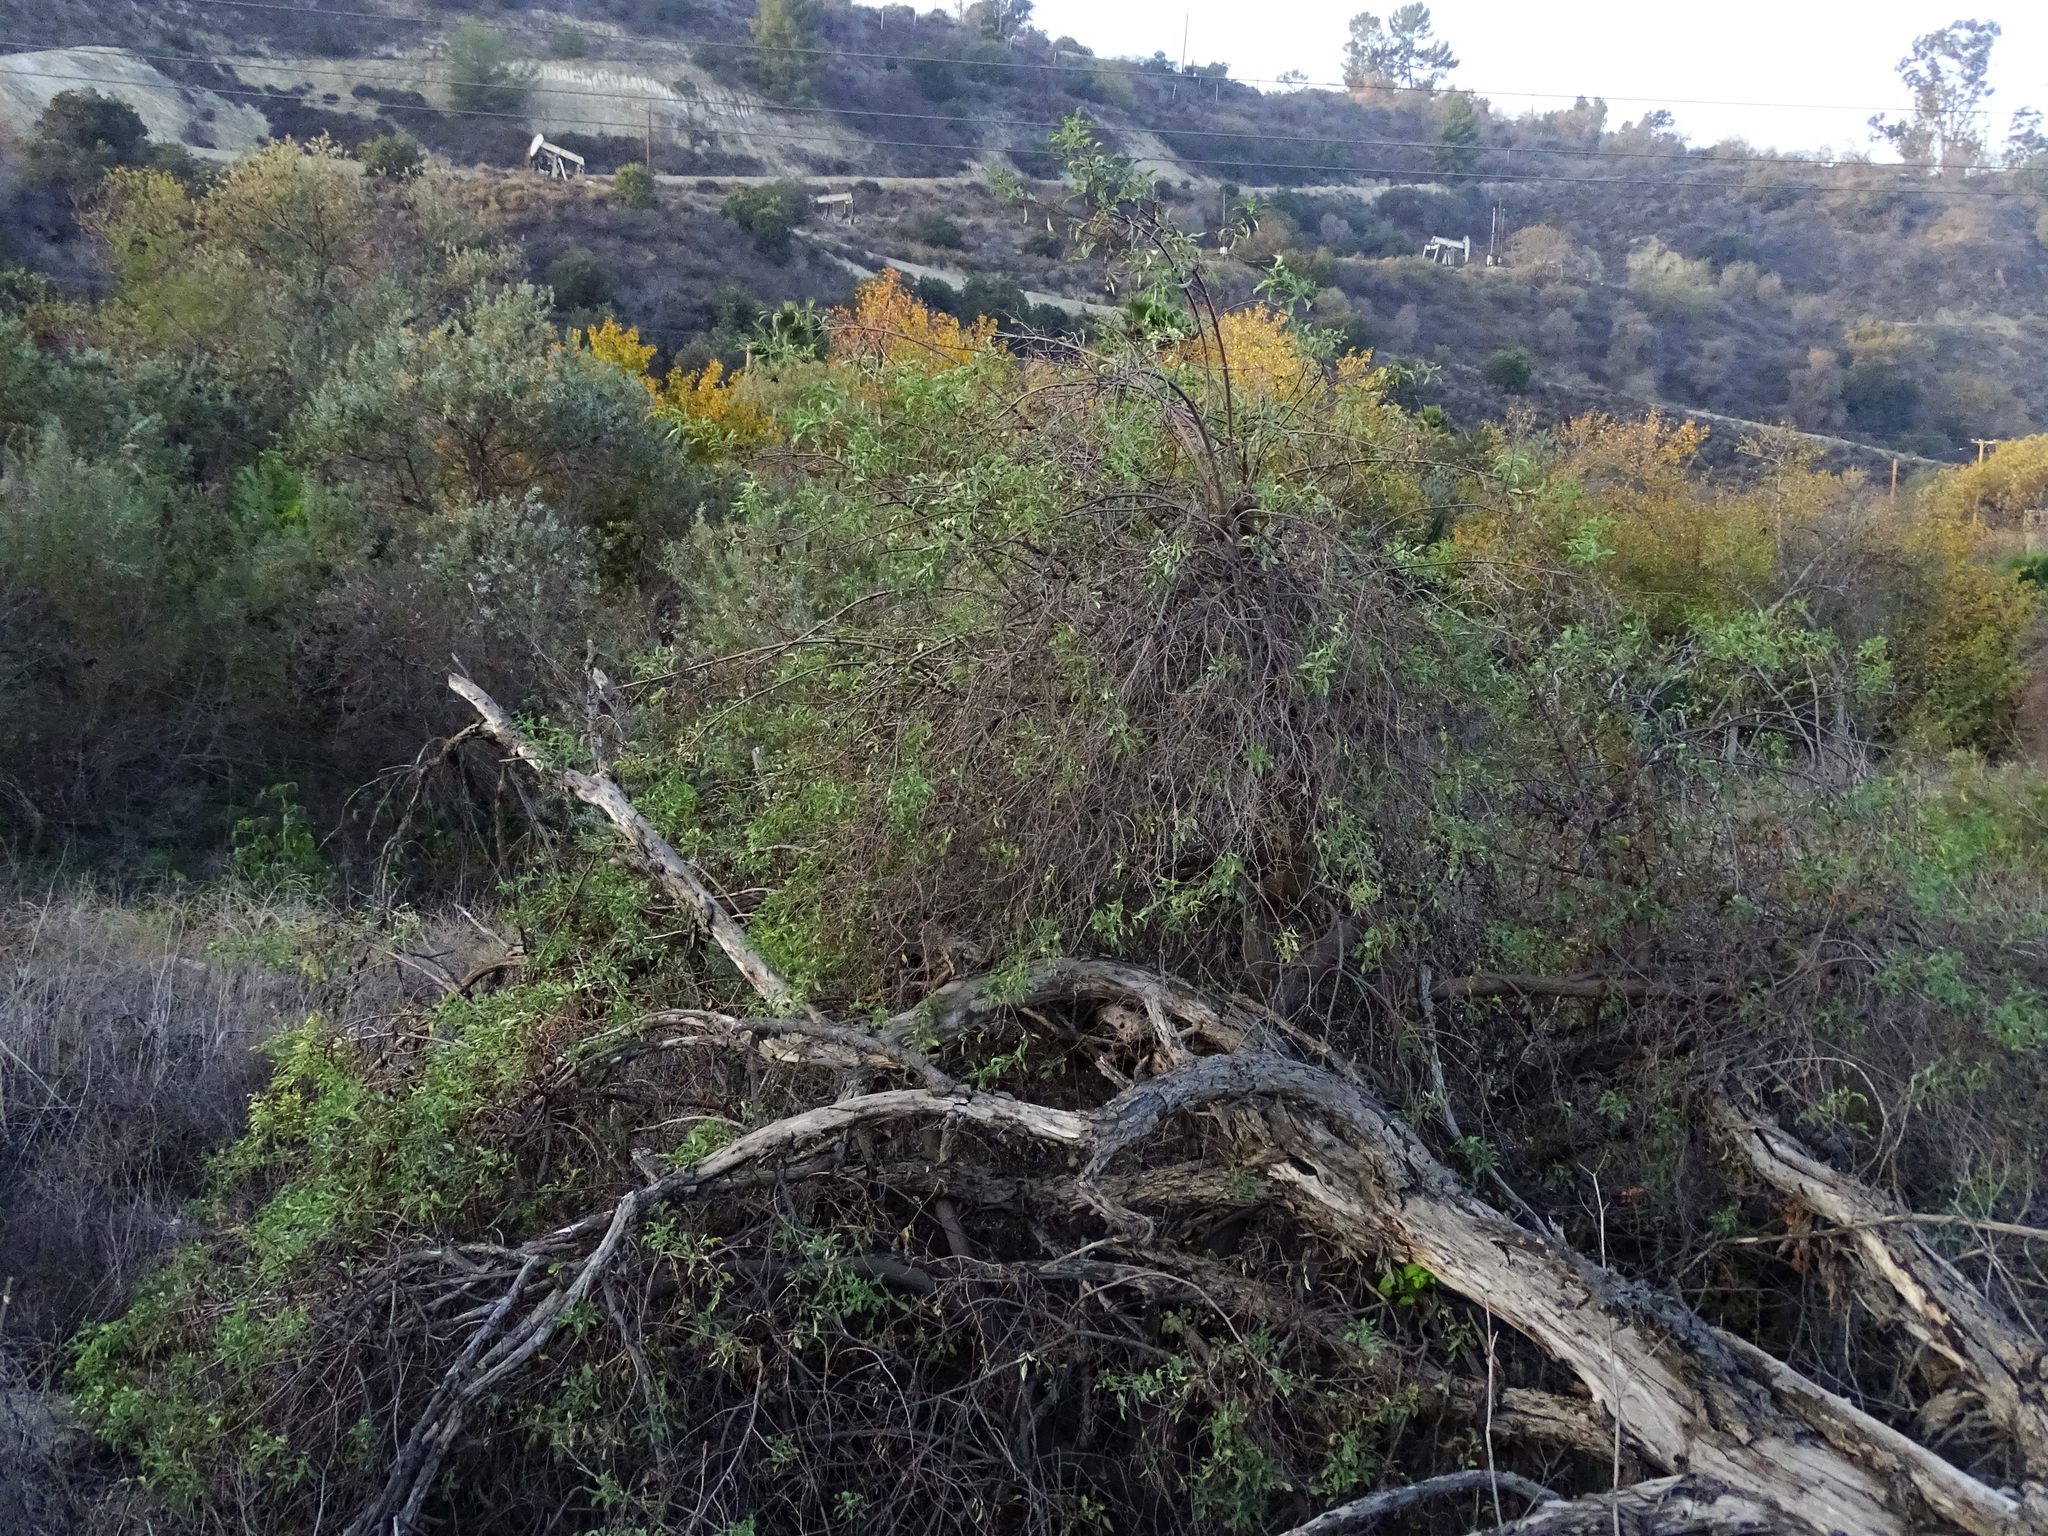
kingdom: Plantae
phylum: Tracheophyta
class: Magnoliopsida
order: Dipsacales
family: Viburnaceae
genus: Sambucus
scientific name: Sambucus cerulea
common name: Blue elder
